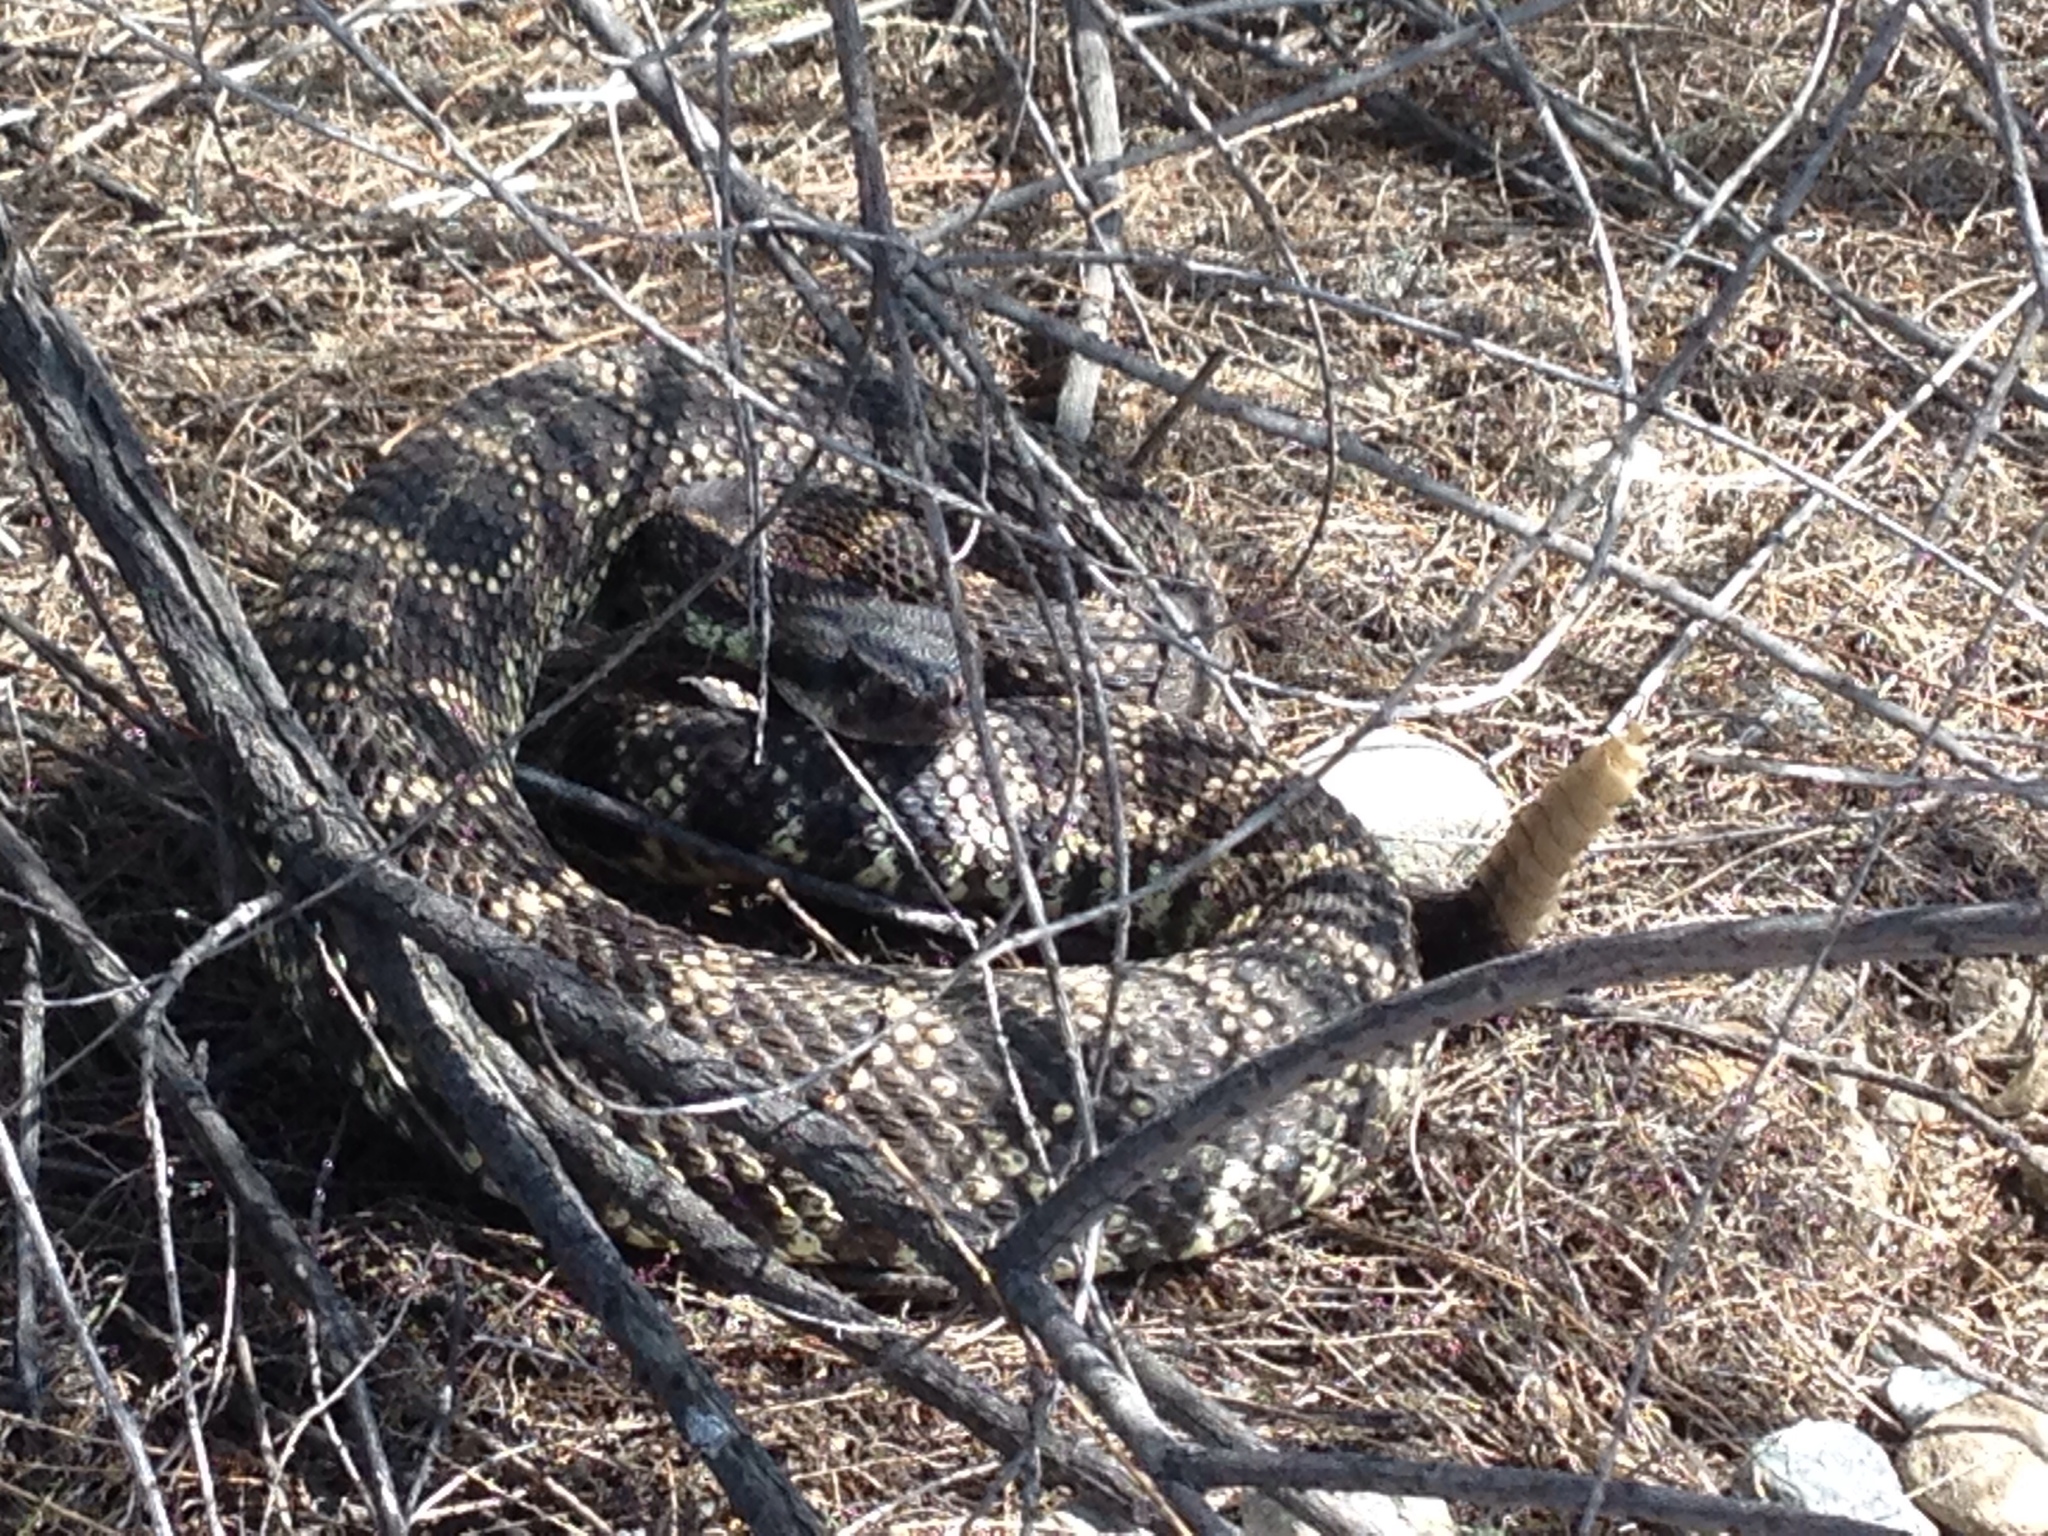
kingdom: Animalia
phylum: Chordata
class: Squamata
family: Viperidae
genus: Crotalus
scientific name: Crotalus oreganus
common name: Abyssus
